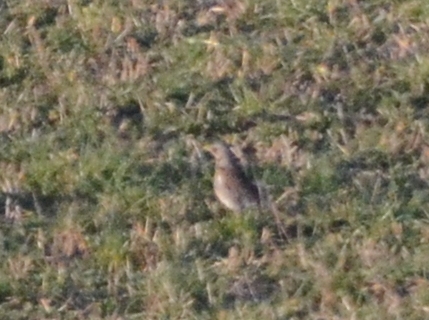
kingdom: Animalia
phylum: Chordata
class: Aves
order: Passeriformes
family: Turdidae
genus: Turdus
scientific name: Turdus pilaris
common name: Fieldfare
